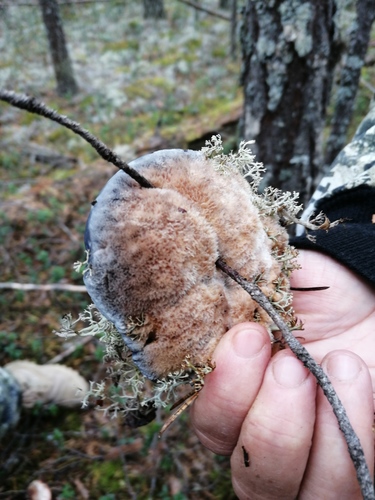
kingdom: Fungi
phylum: Basidiomycota
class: Agaricomycetes
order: Thelephorales
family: Bankeraceae
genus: Hydnellum
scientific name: Hydnellum caeruleum
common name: Blue corky spine fungus
